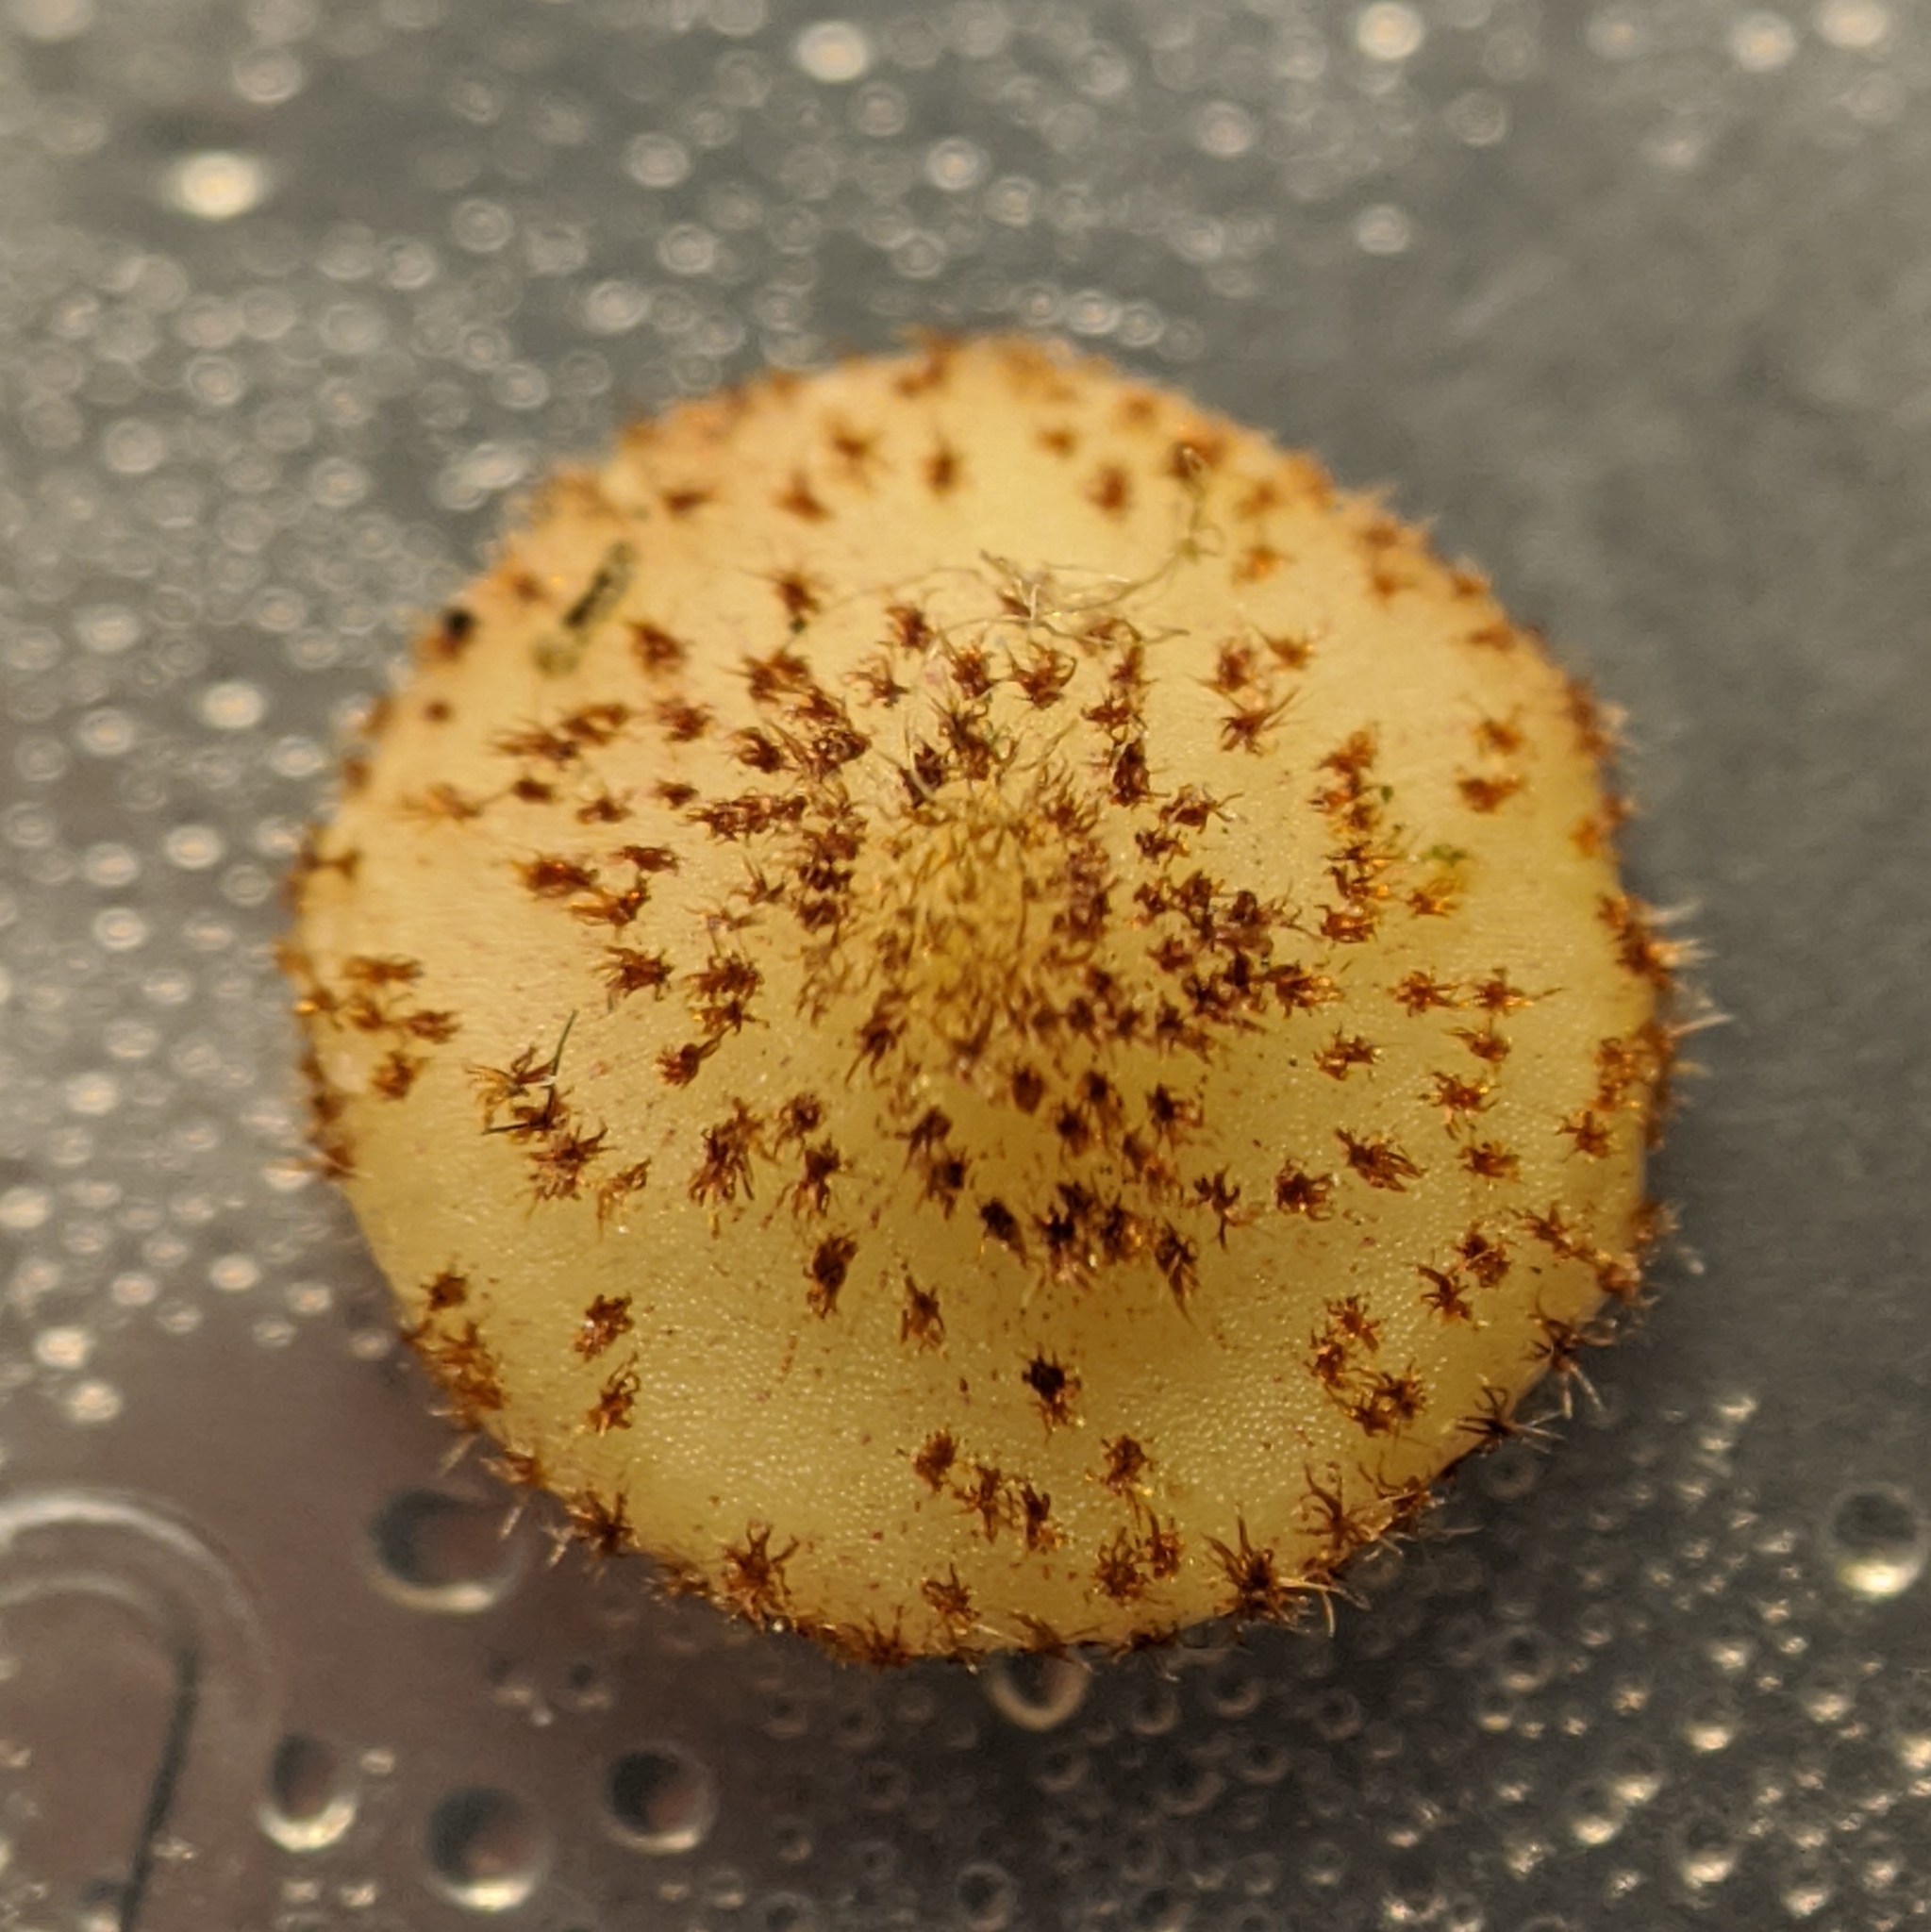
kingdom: Animalia
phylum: Arthropoda
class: Insecta
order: Hymenoptera
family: Cynipidae
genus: Neuroterus
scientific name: Neuroterus quercusbaccarum
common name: Common spangle gall
